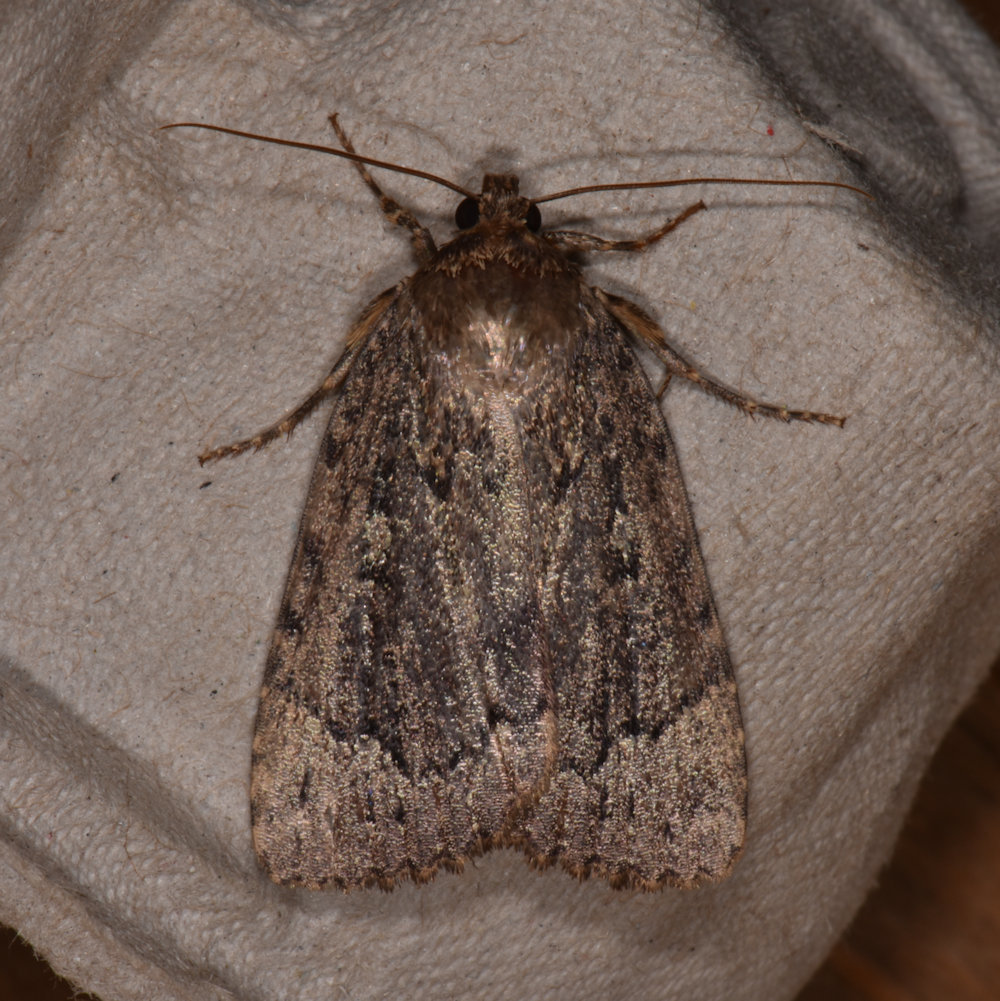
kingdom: Animalia
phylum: Arthropoda
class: Insecta
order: Lepidoptera
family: Noctuidae
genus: Amphipyra
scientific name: Amphipyra pyramidoides
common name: American copper underwing
